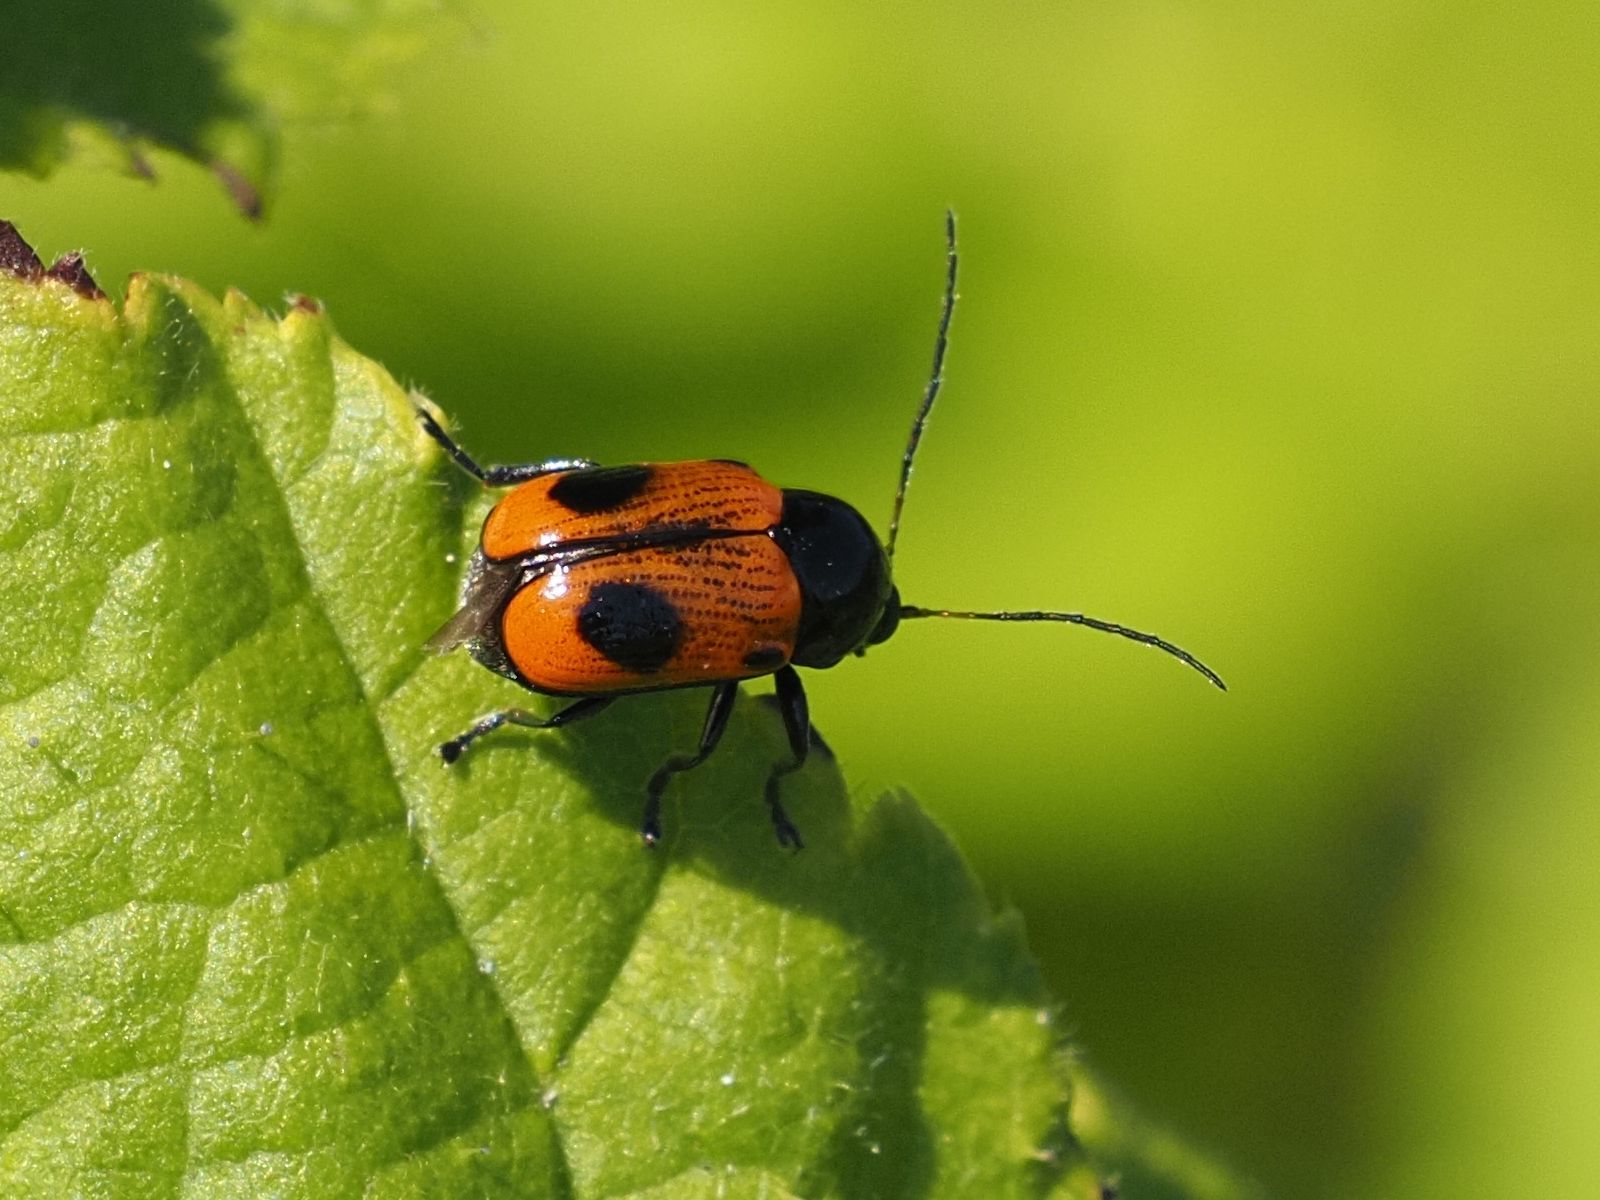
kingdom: Animalia
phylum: Arthropoda
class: Insecta
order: Coleoptera
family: Chrysomelidae
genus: Chiridopsis
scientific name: Chiridopsis bipunctata
